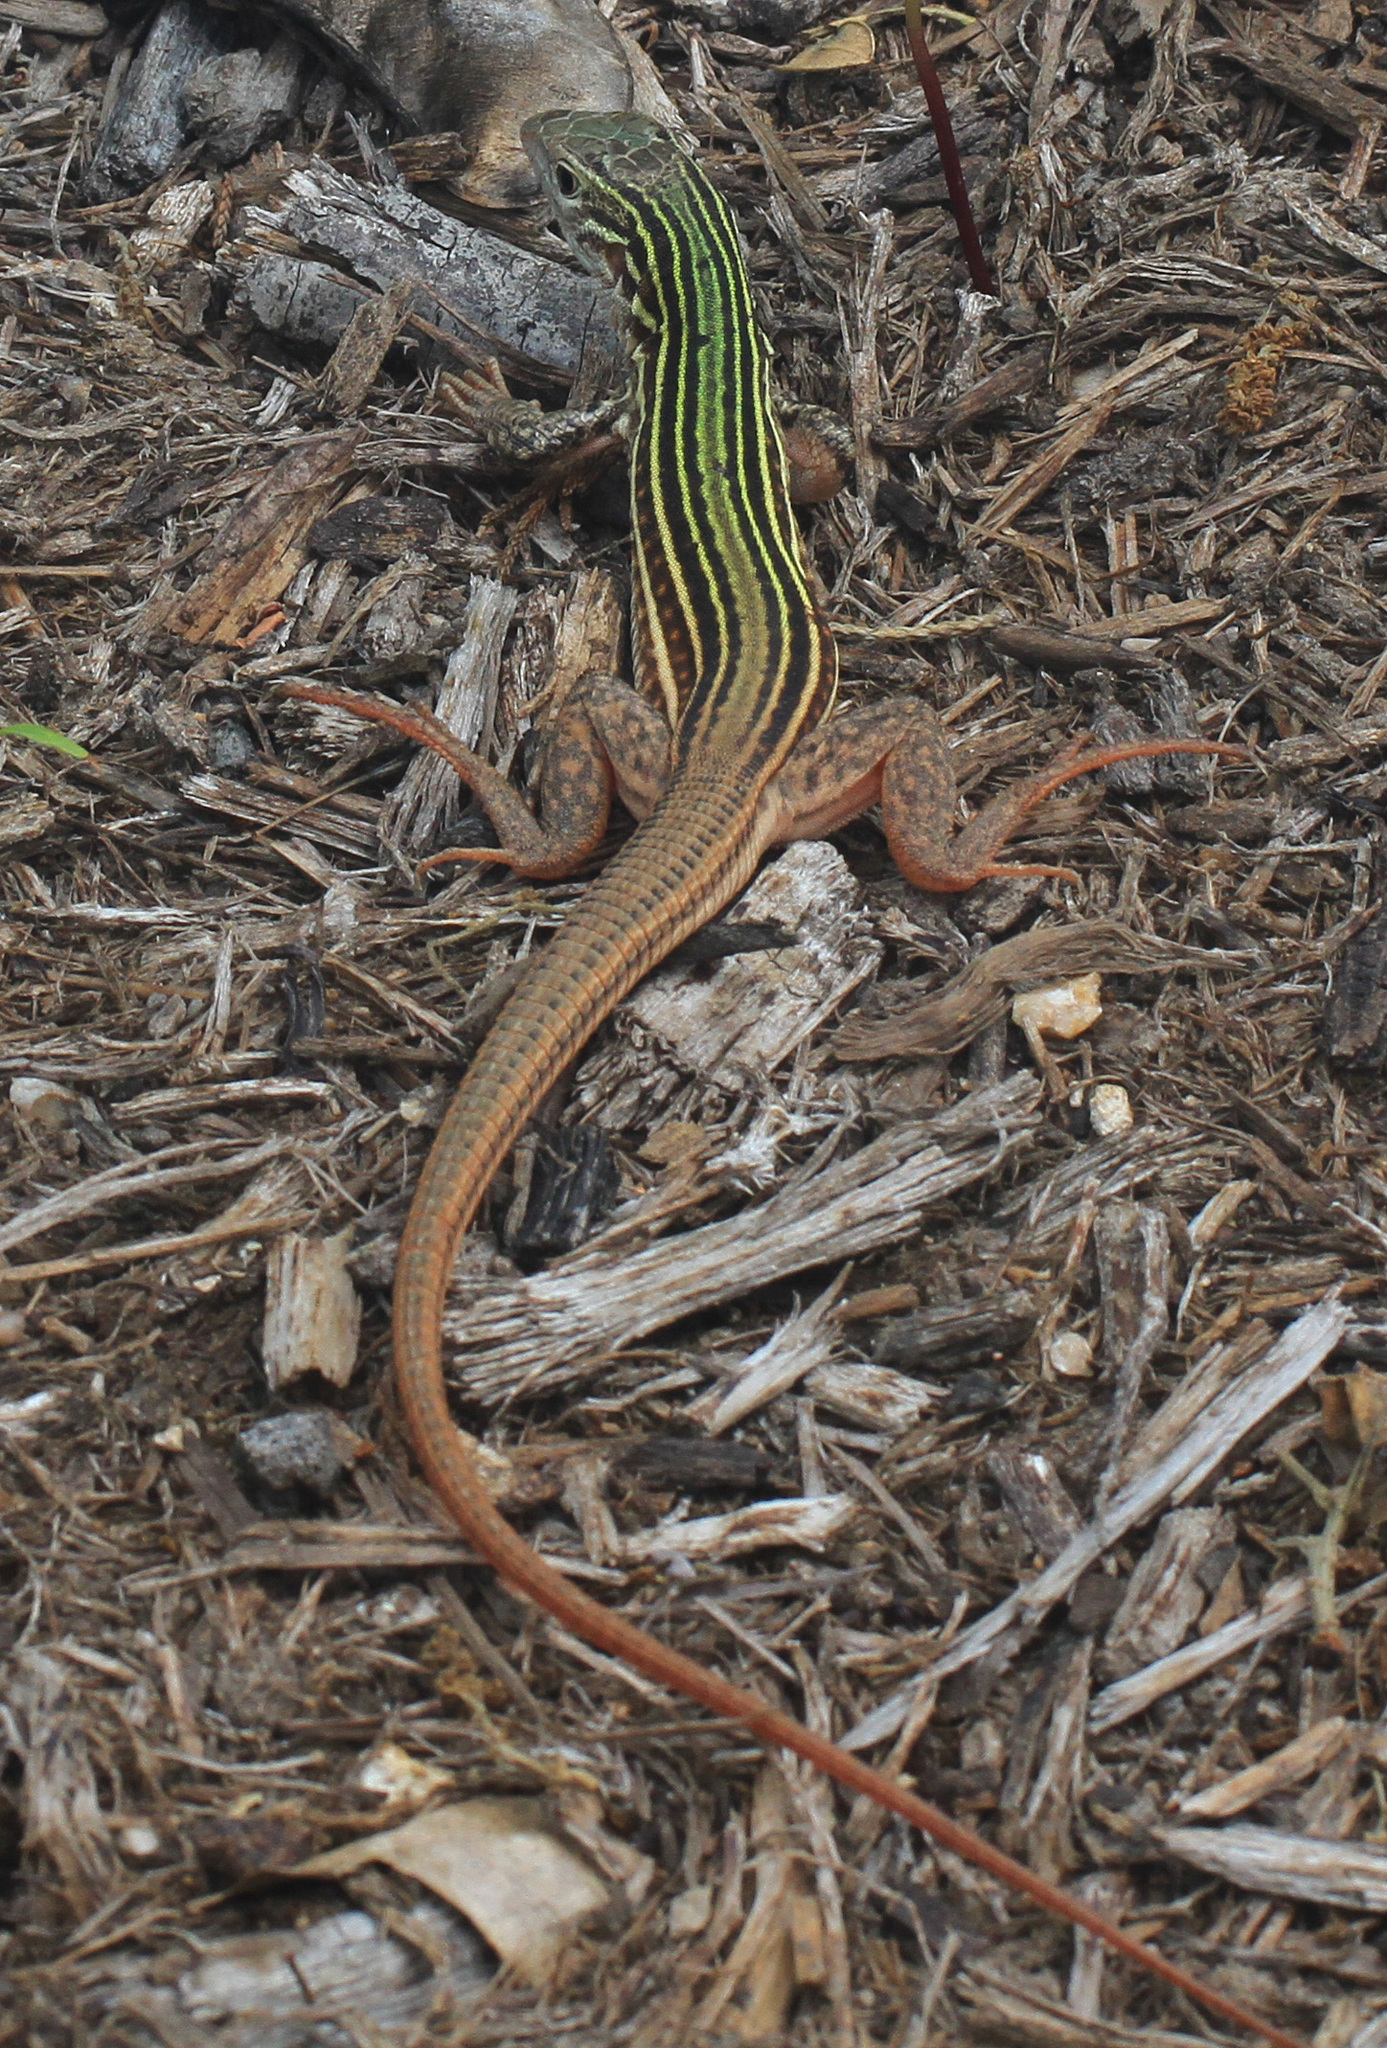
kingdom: Animalia
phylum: Chordata
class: Squamata
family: Teiidae
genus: Aspidoscelis
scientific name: Aspidoscelis gularis
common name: Eastern spotted whiptail
